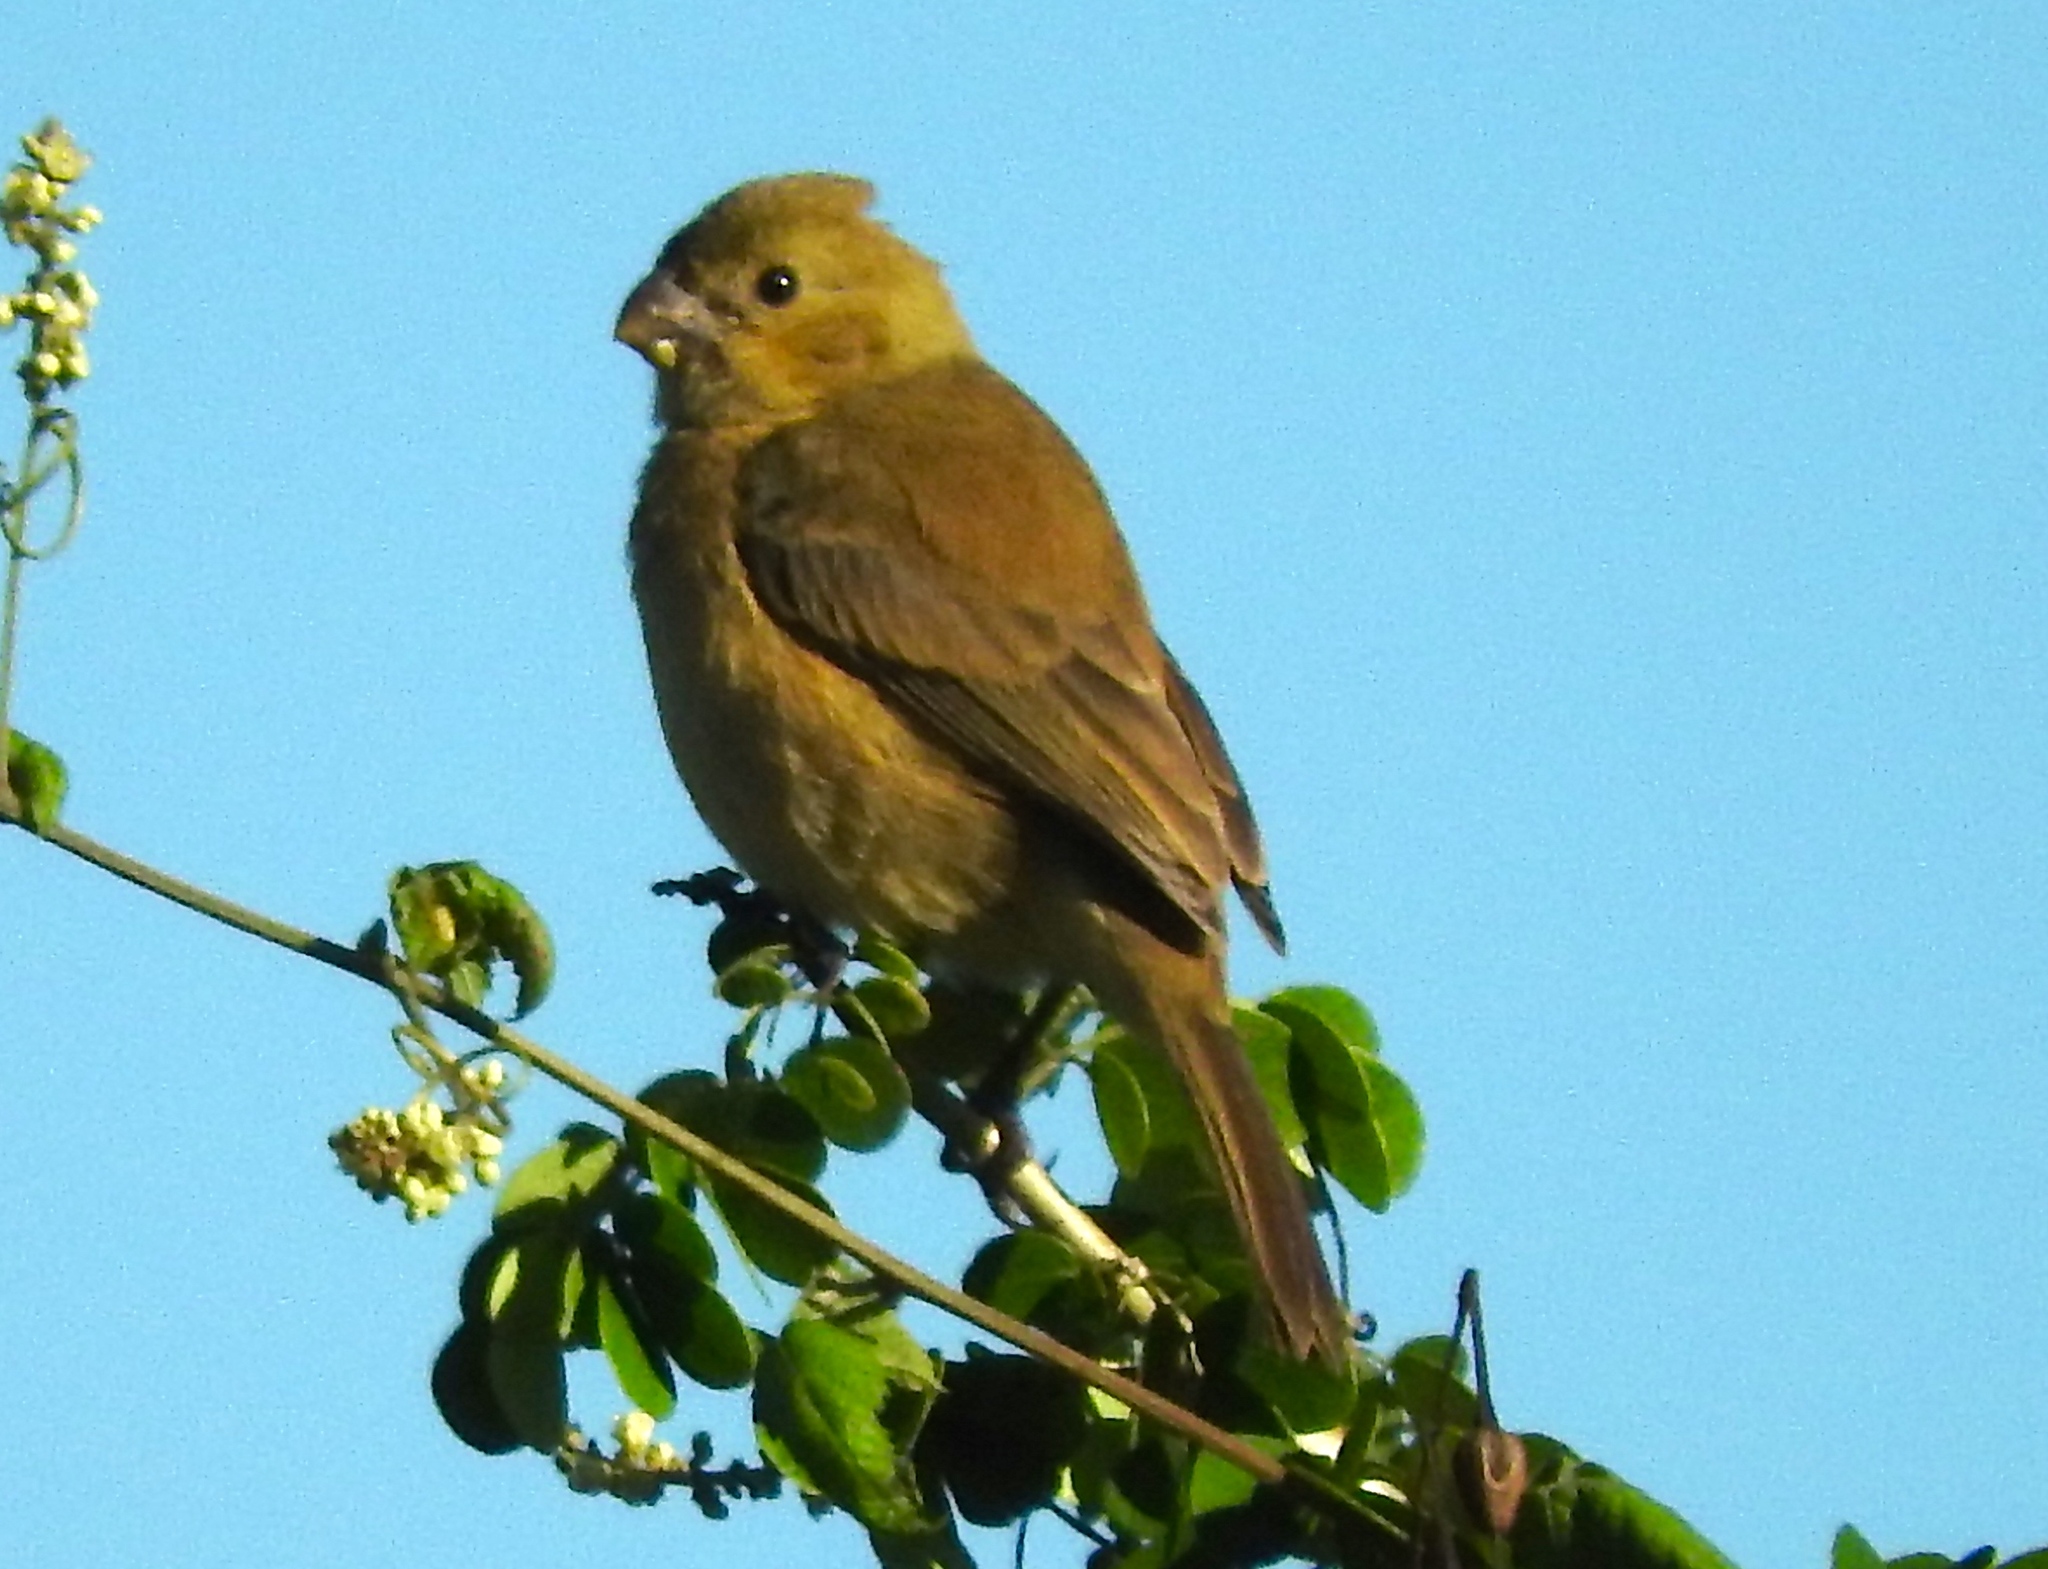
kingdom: Animalia
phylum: Chordata
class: Aves
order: Passeriformes
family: Thraupidae
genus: Sporophila
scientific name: Sporophila torqueola
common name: White-collared seedeater
